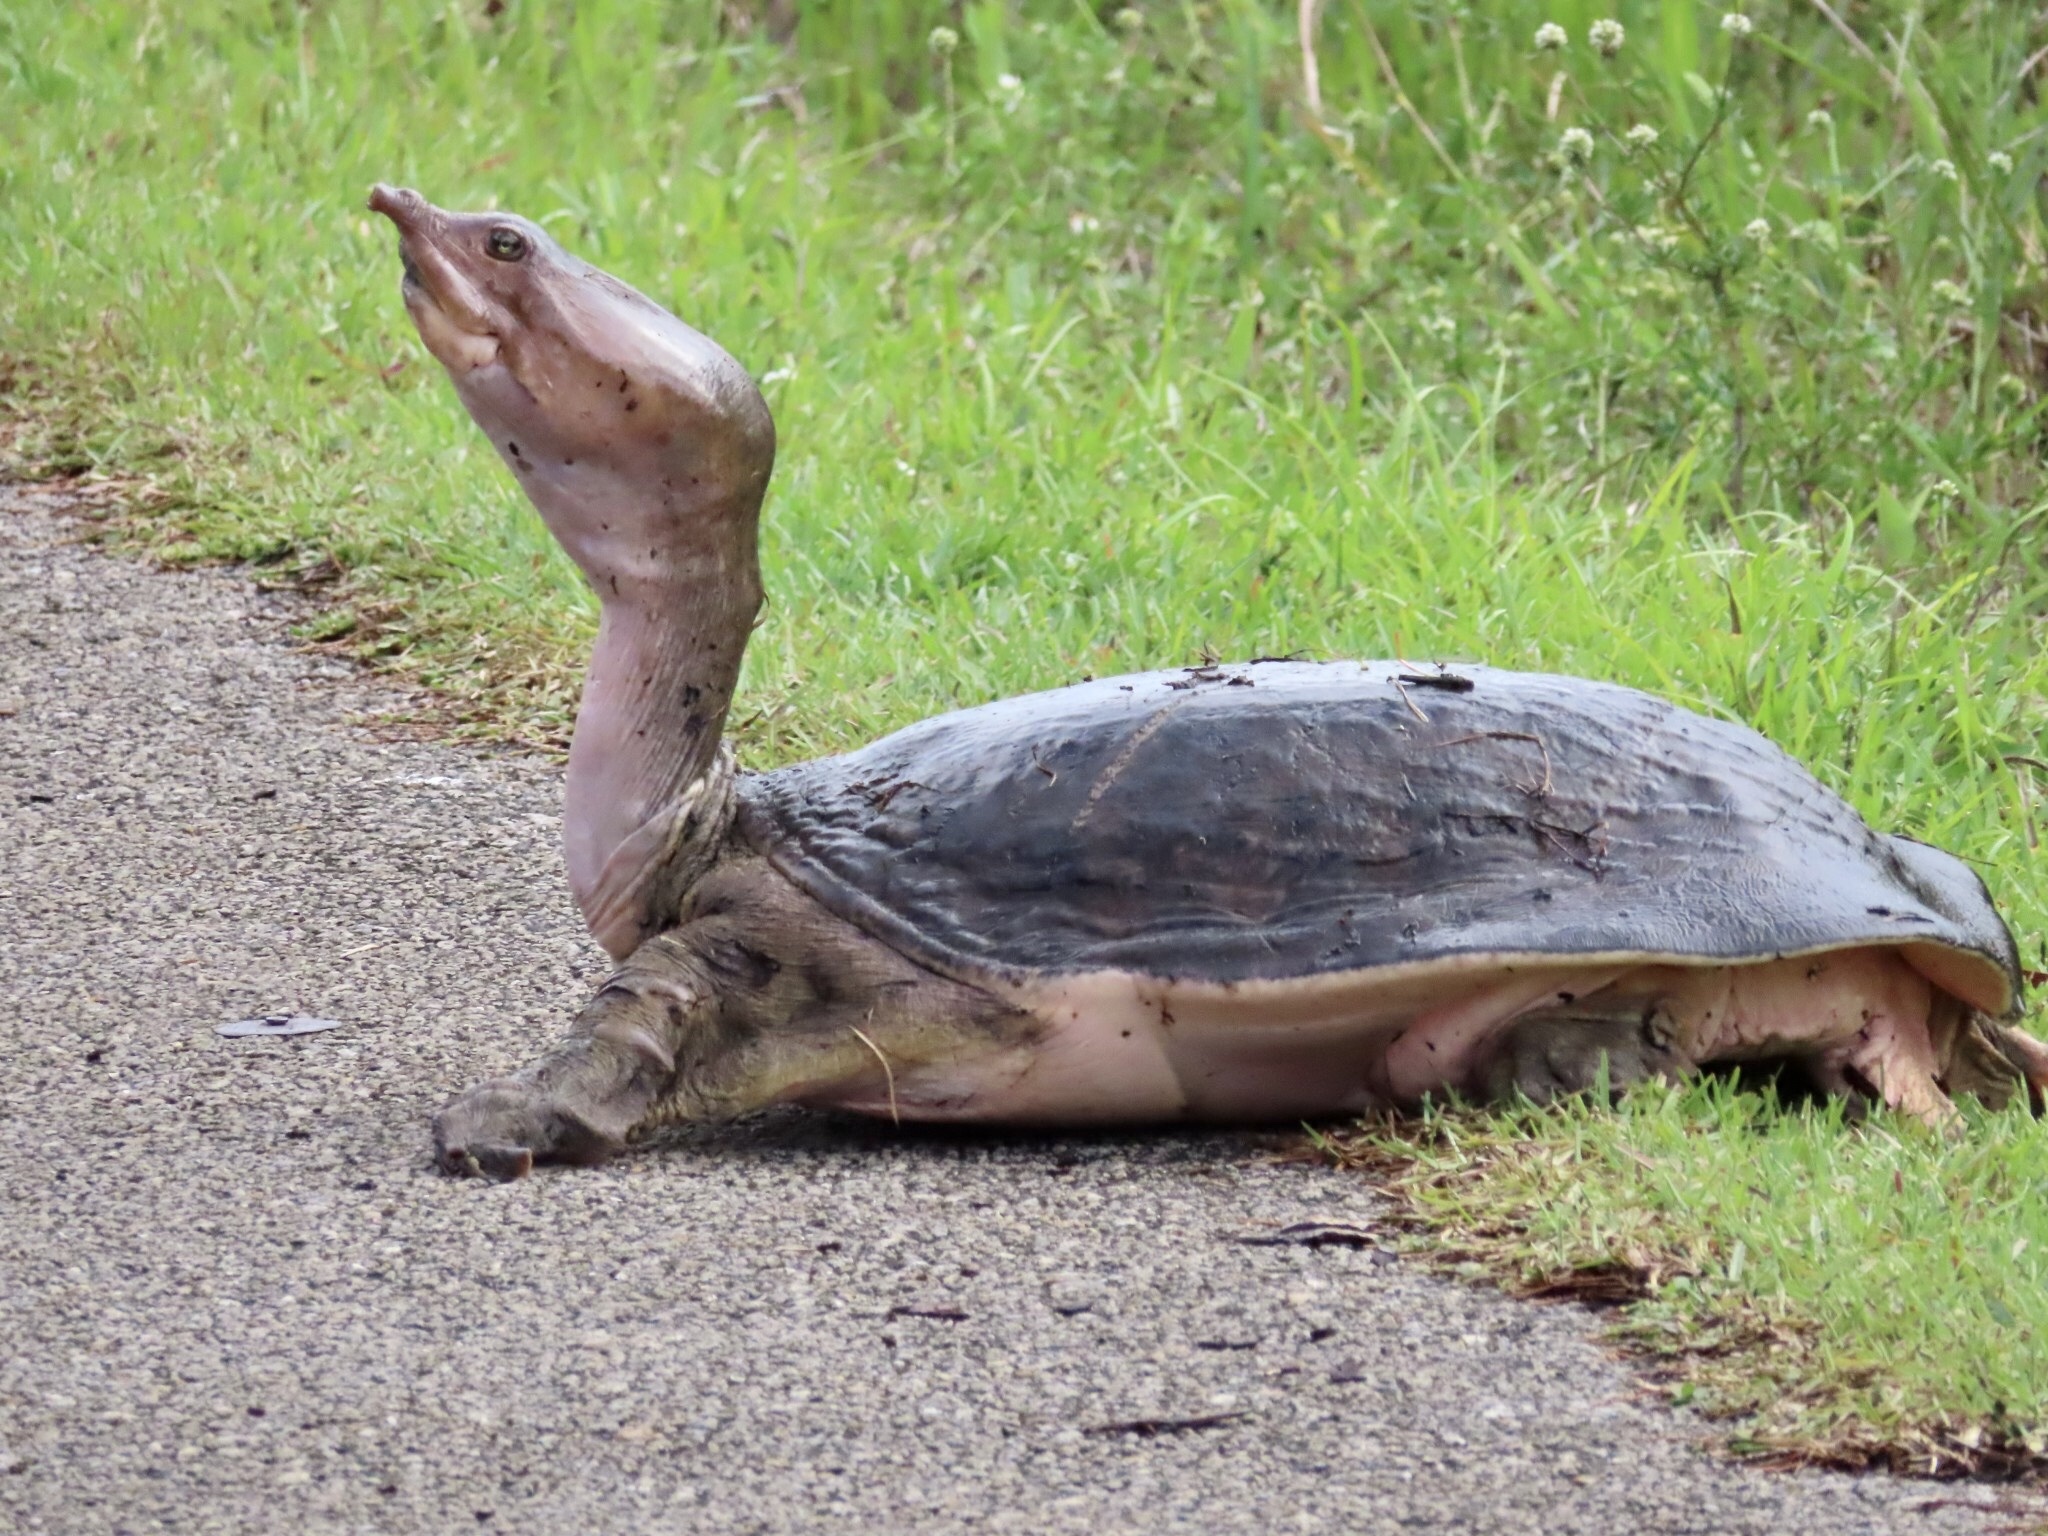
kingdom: Animalia
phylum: Chordata
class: Testudines
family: Trionychidae
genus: Apalone
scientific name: Apalone ferox
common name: Florida softshell turtle
